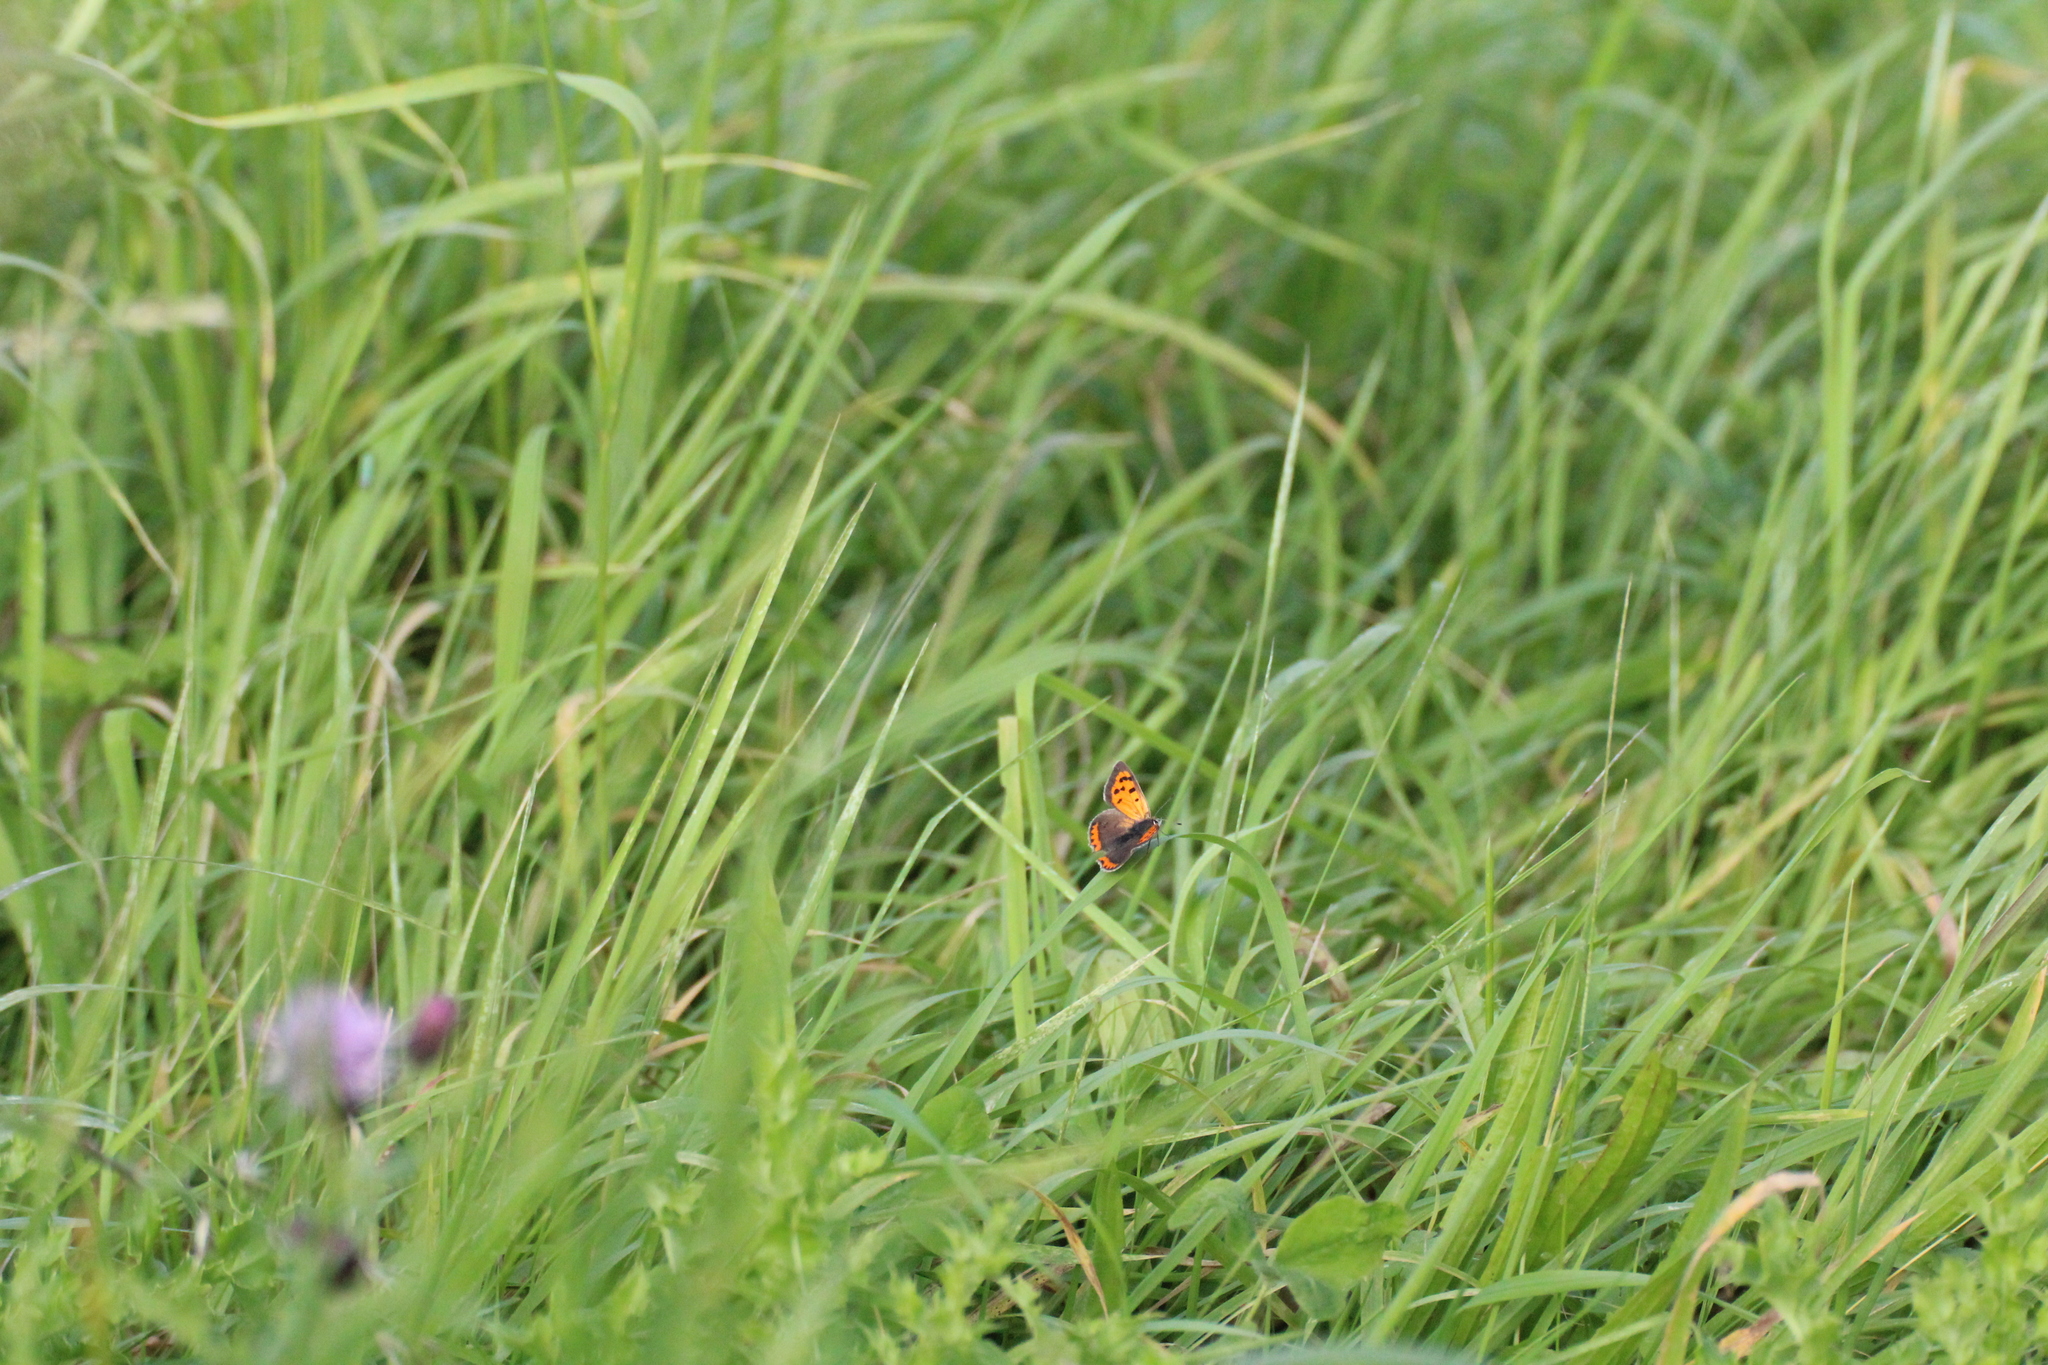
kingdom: Animalia
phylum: Arthropoda
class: Insecta
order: Lepidoptera
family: Lycaenidae
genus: Lycaena
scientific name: Lycaena phlaeas
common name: Small copper
